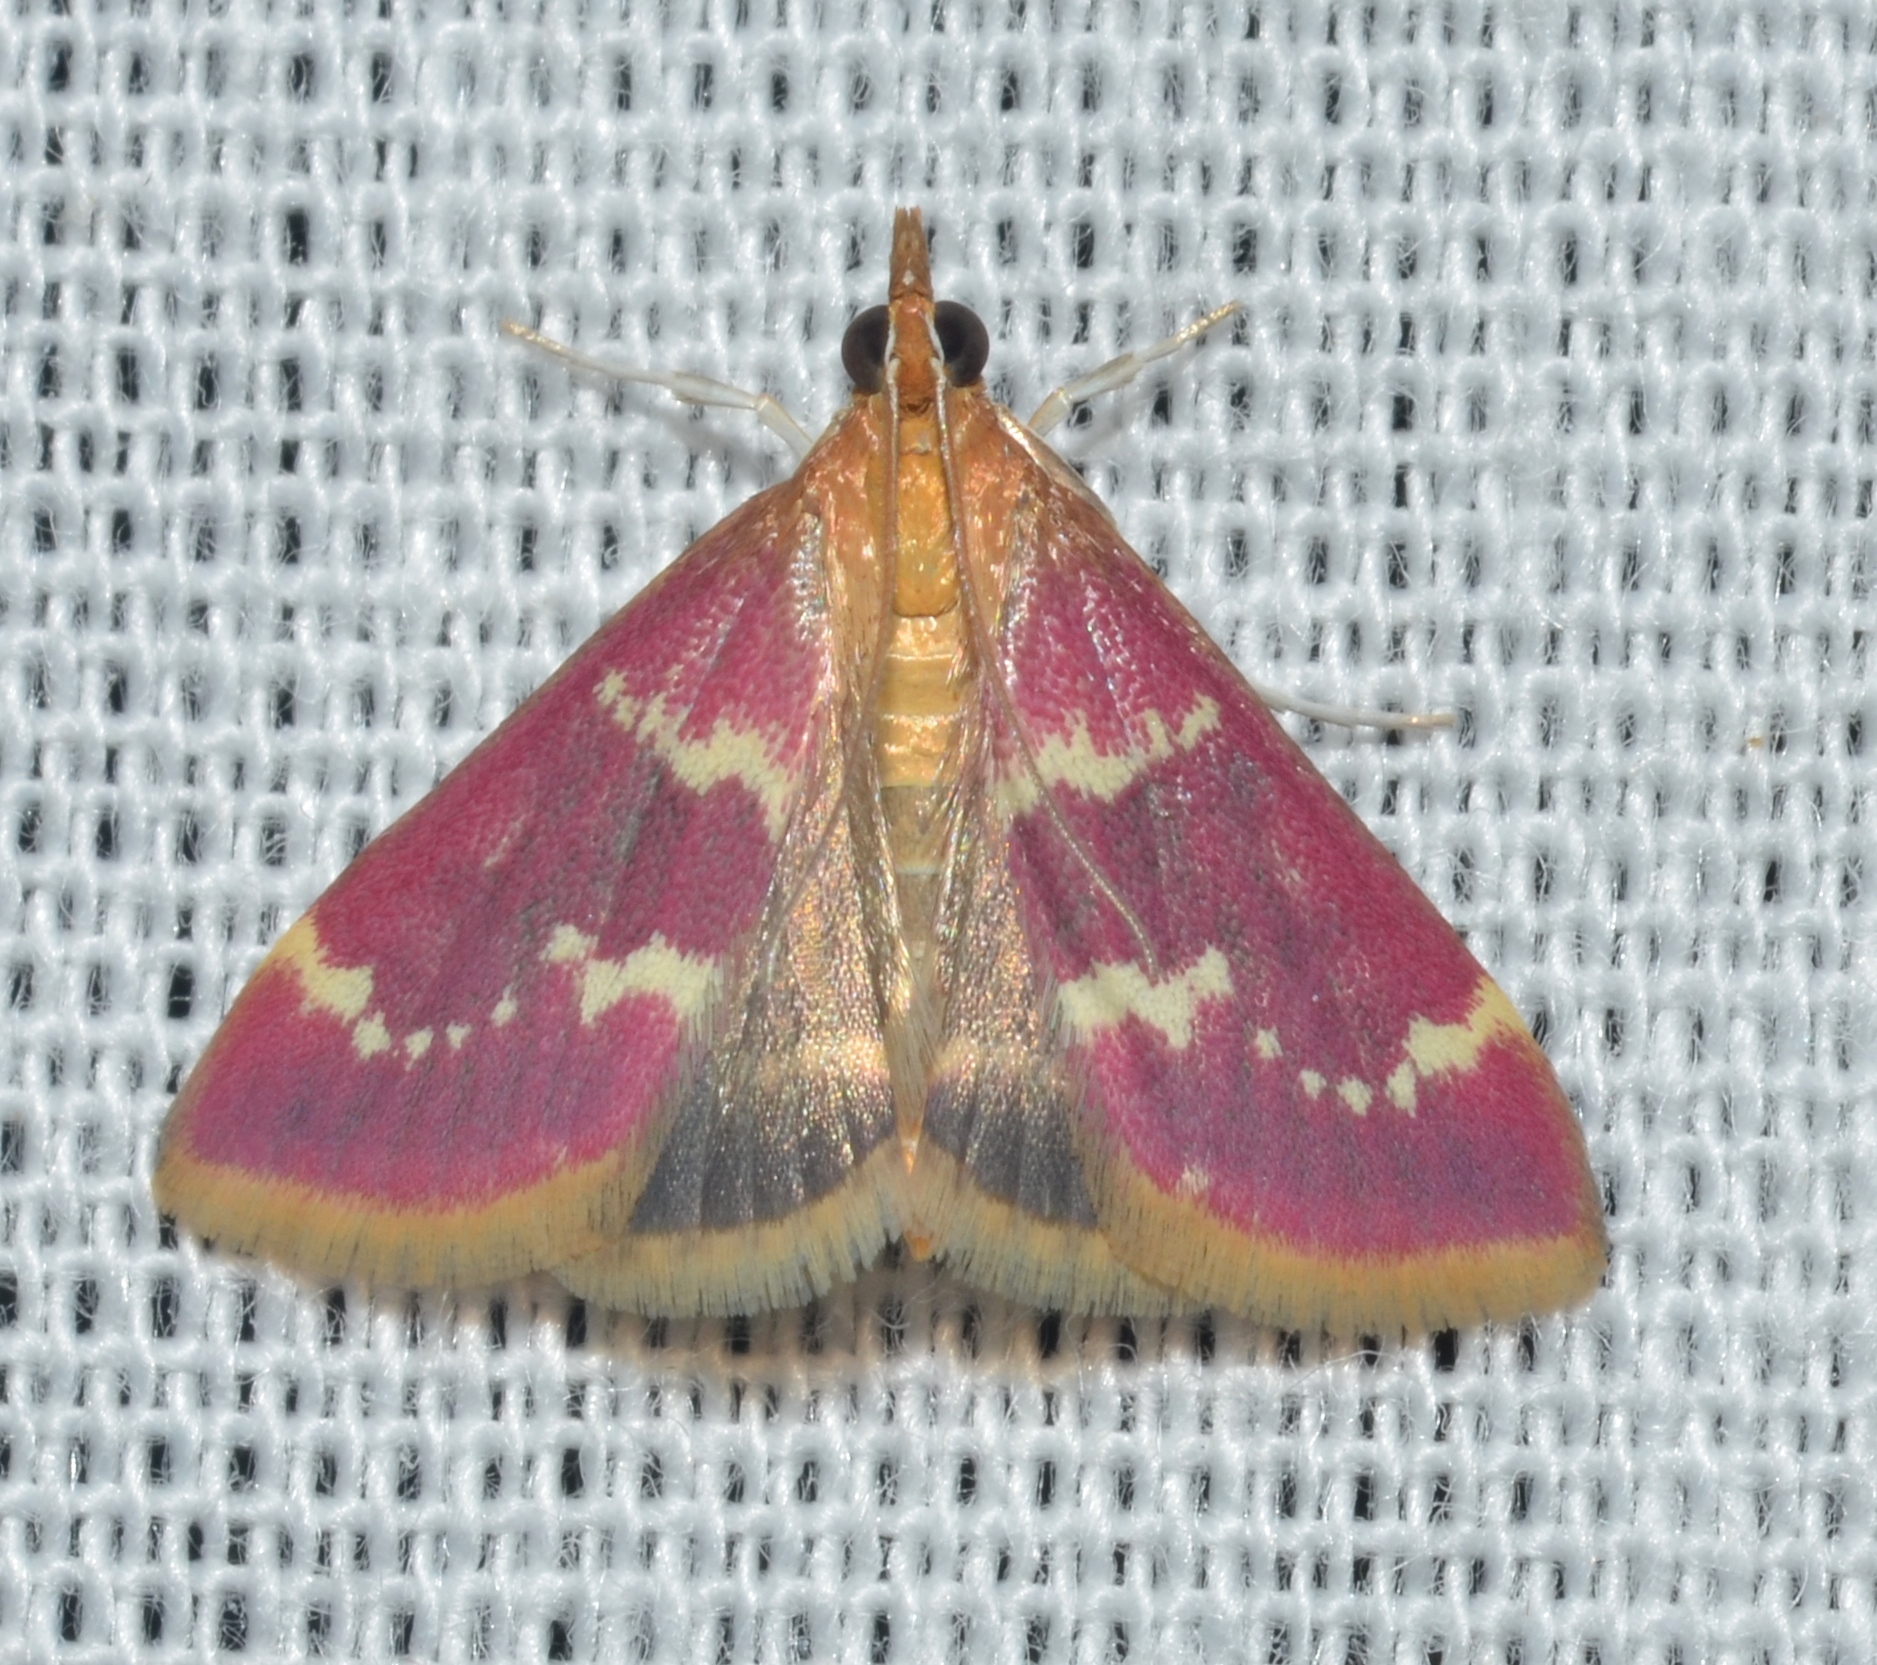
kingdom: Animalia
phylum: Arthropoda
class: Insecta
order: Lepidoptera
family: Crambidae
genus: Pyrausta
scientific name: Pyrausta signatalis
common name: Raspberry pyrausta moth
